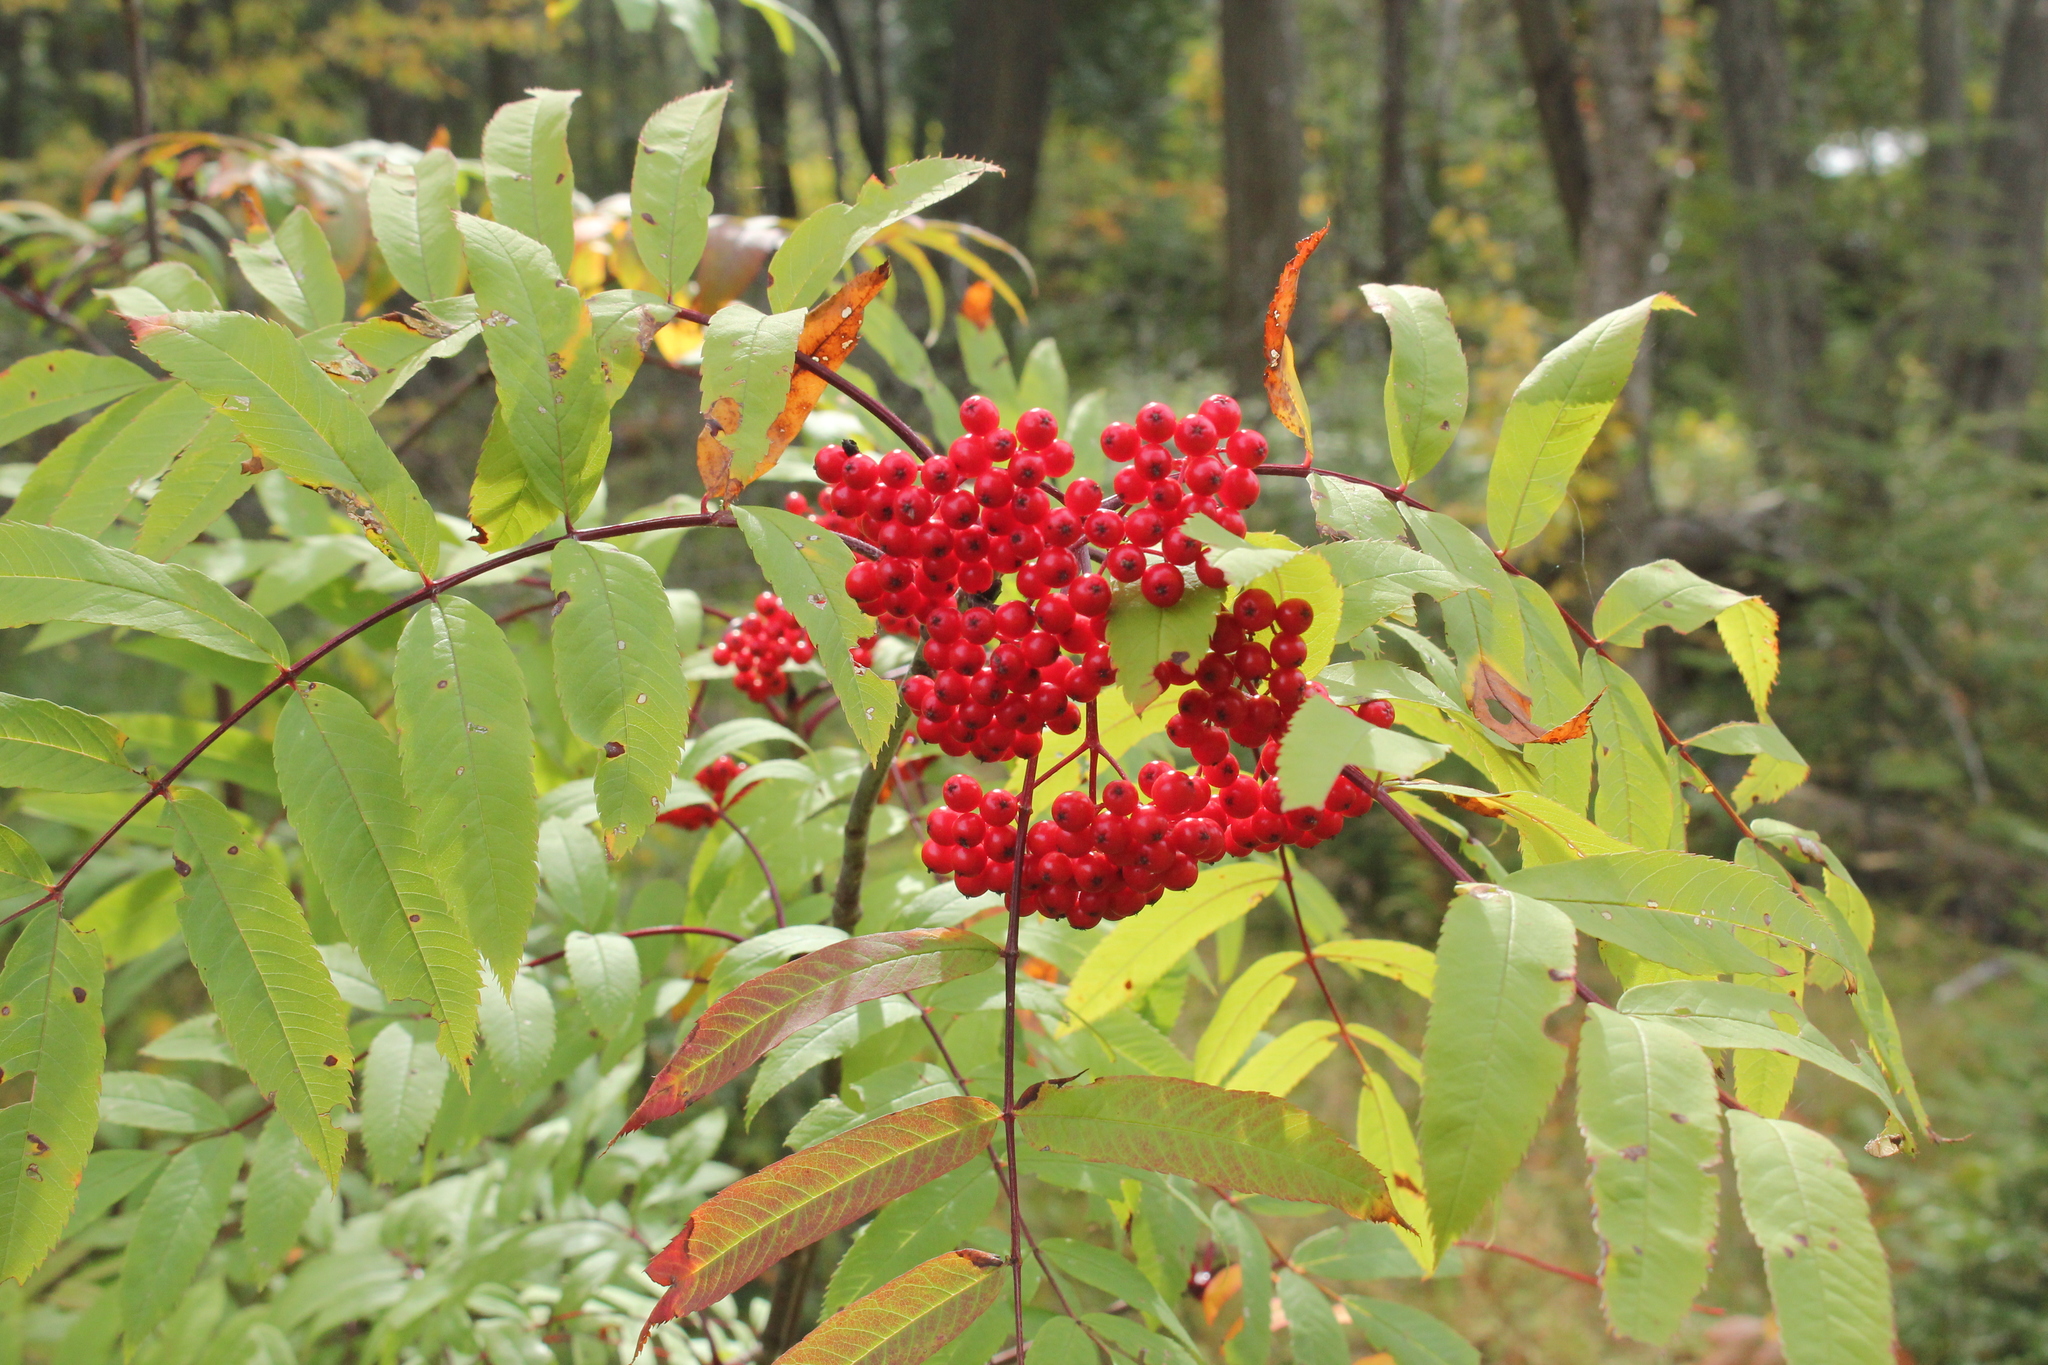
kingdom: Plantae
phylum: Tracheophyta
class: Magnoliopsida
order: Rosales
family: Rosaceae
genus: Sorbus
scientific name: Sorbus americana
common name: American mountain-ash
